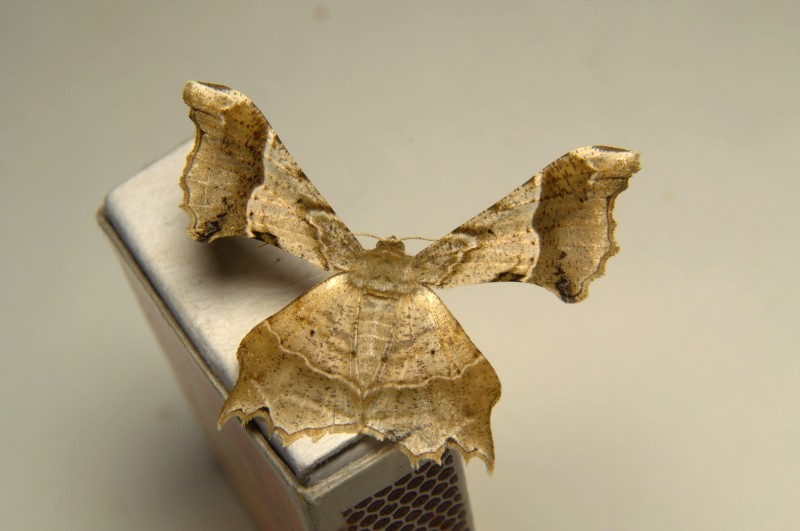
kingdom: Animalia
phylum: Arthropoda
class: Insecta
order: Lepidoptera
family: Geometridae
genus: Krananda
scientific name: Krananda oliveomarginata
